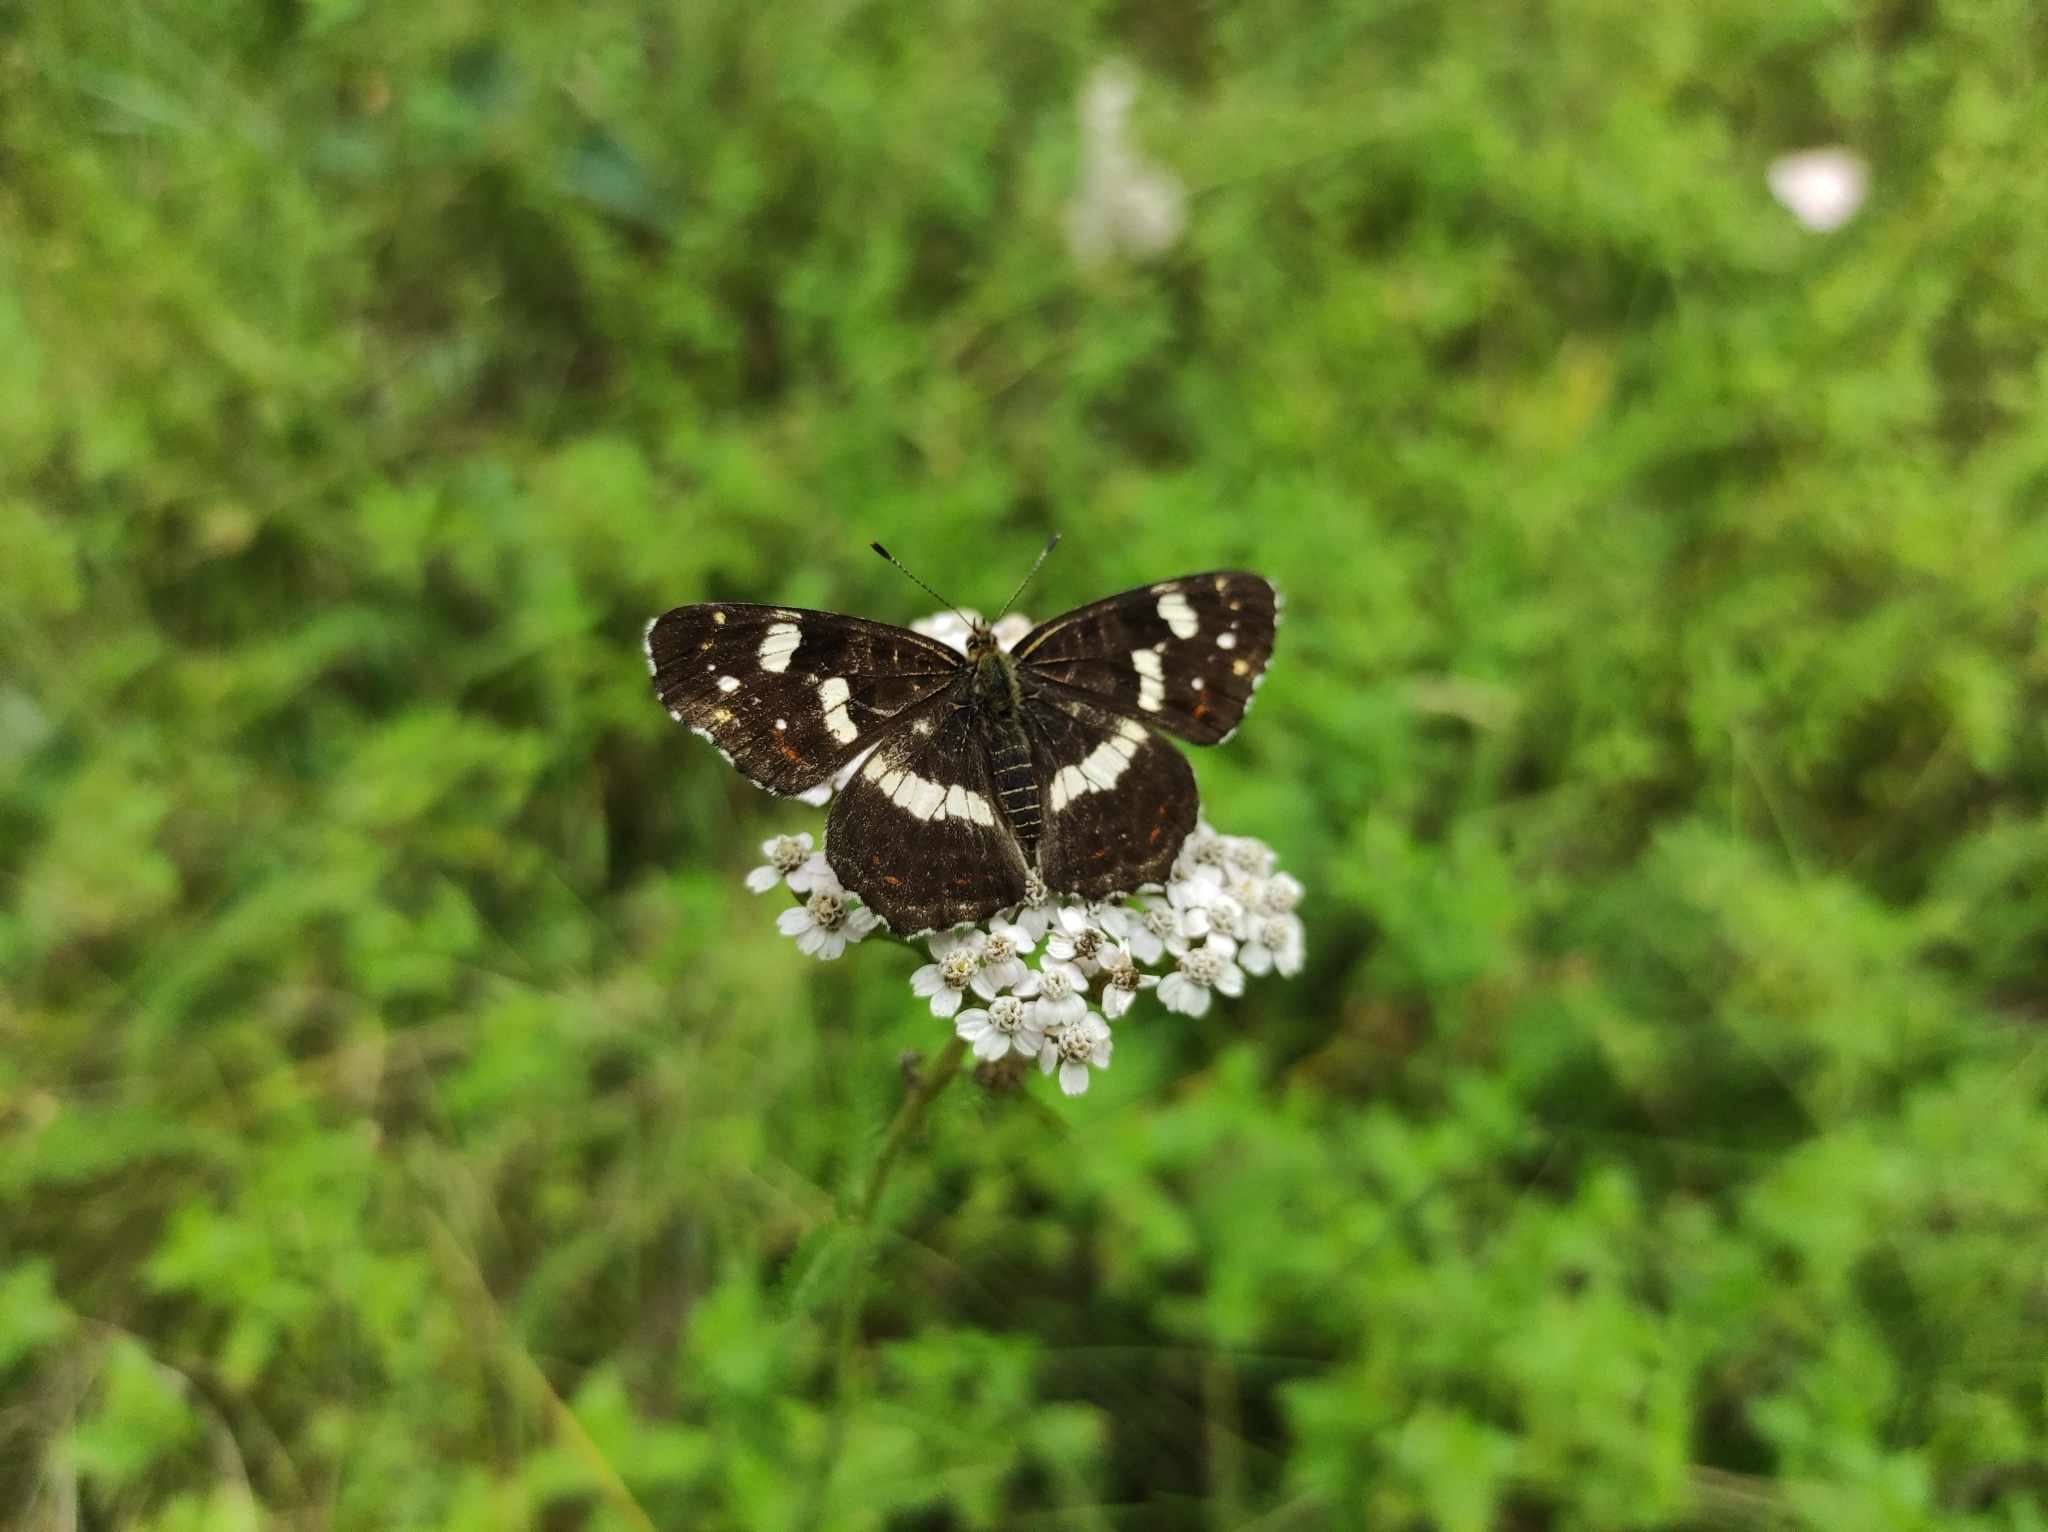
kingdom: Animalia
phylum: Arthropoda
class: Insecta
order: Lepidoptera
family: Nymphalidae
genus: Araschnia
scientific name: Araschnia levana
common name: Map butterfly
